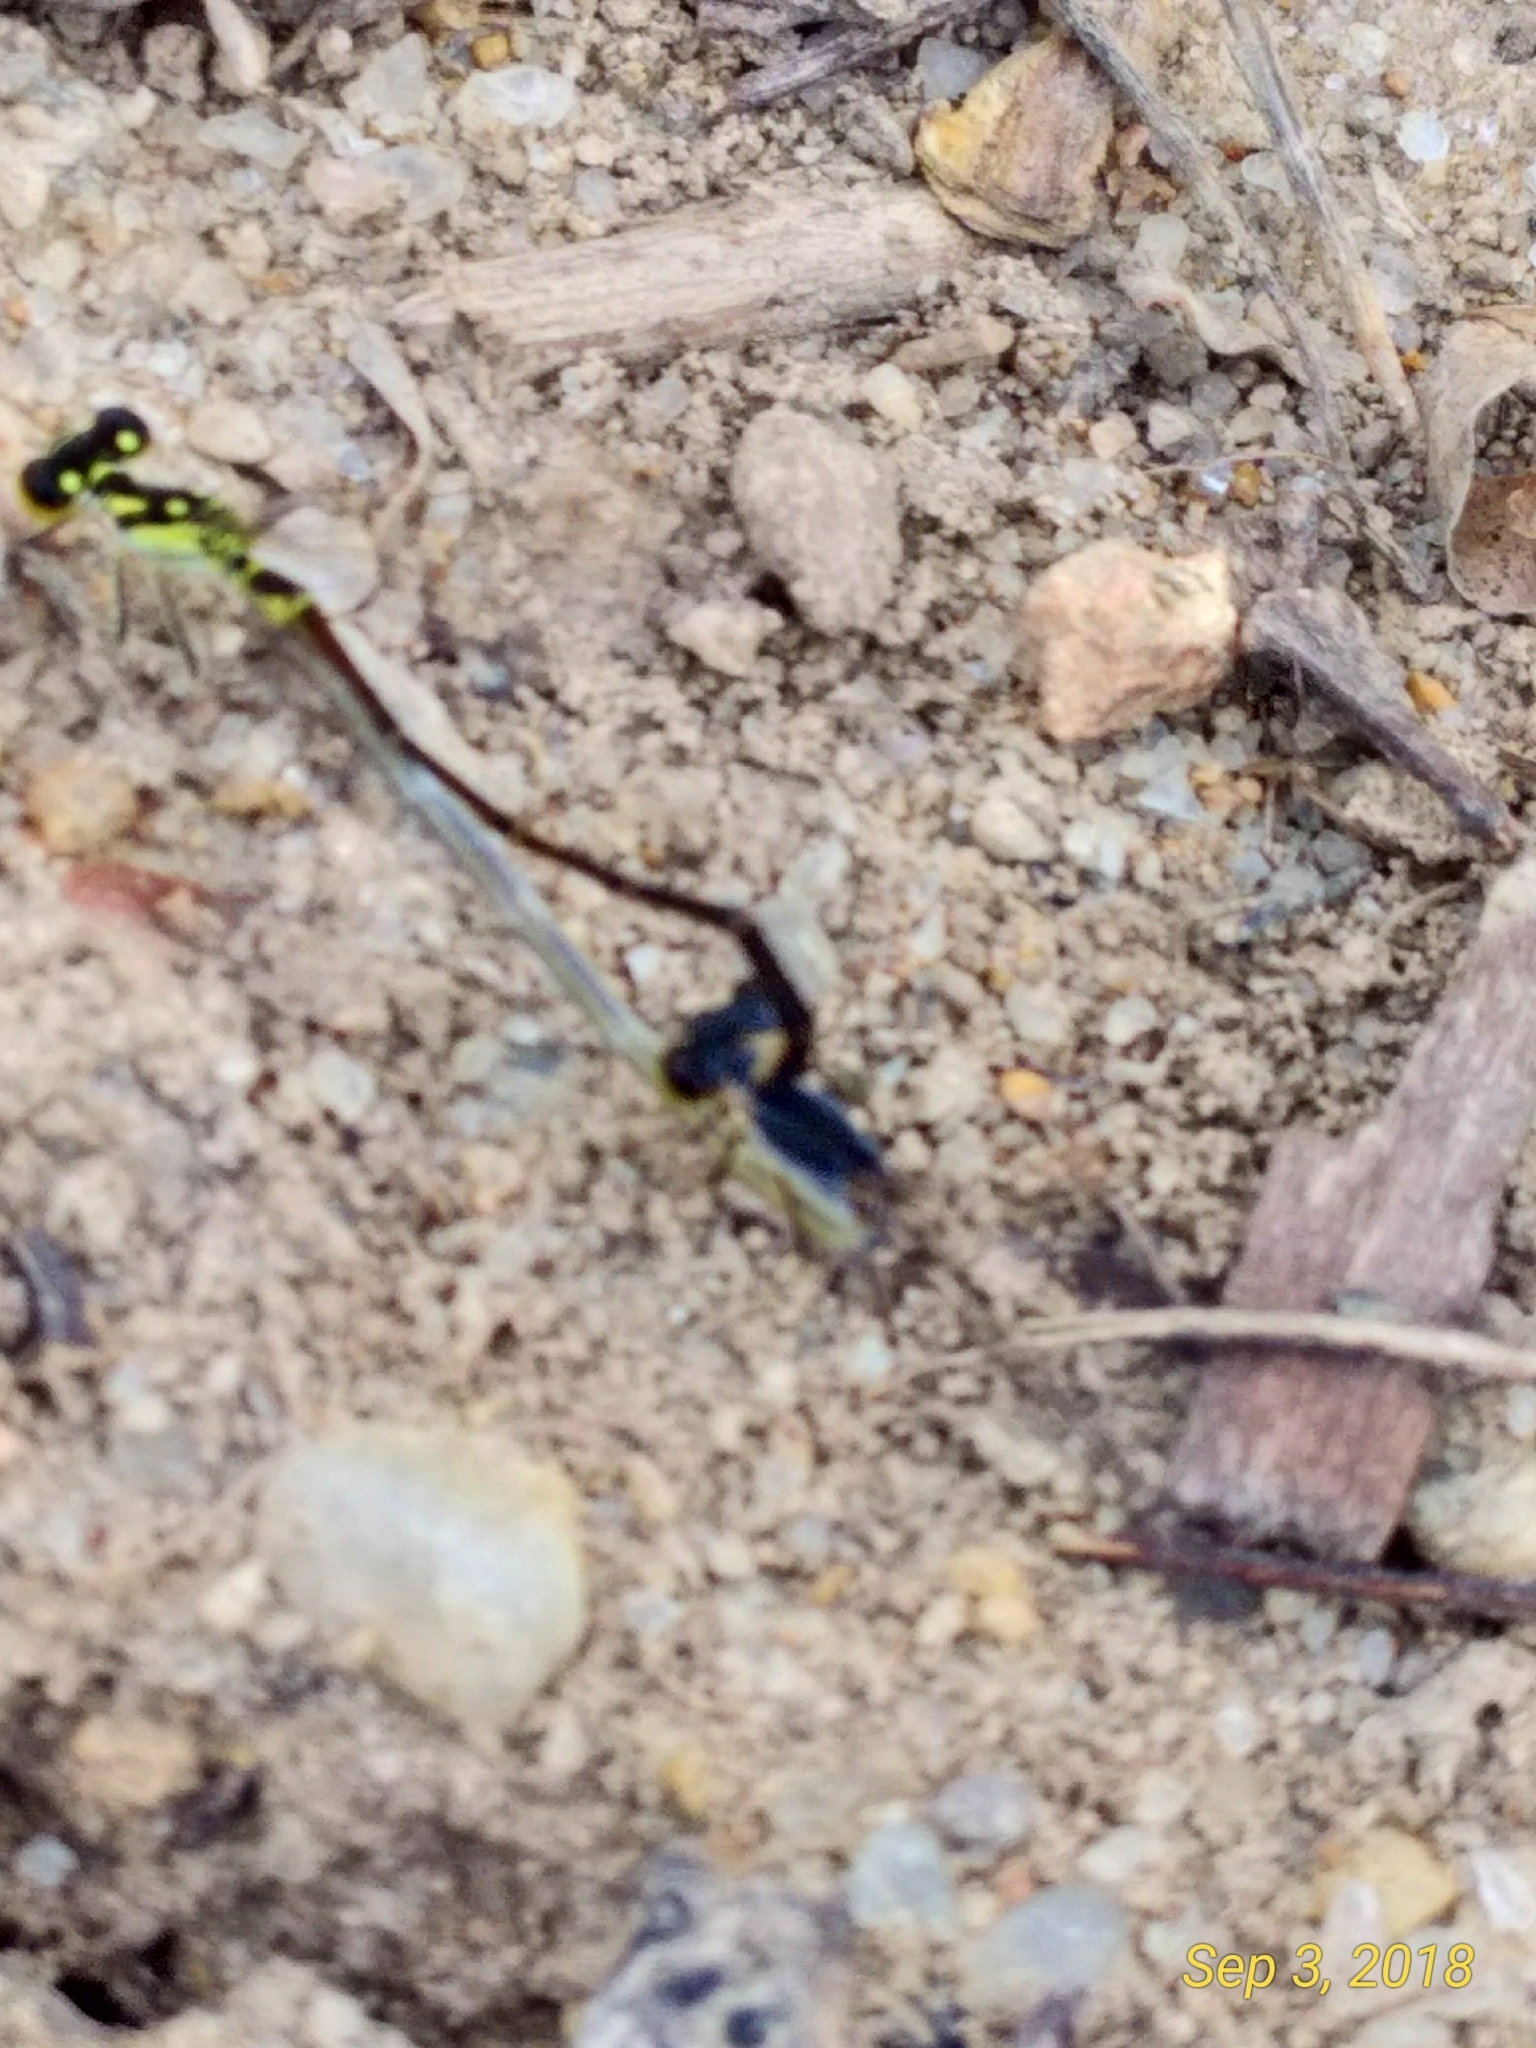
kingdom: Animalia
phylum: Arthropoda
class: Insecta
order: Odonata
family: Coenagrionidae
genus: Ischnura
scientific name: Ischnura posita
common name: Fragile forktail
